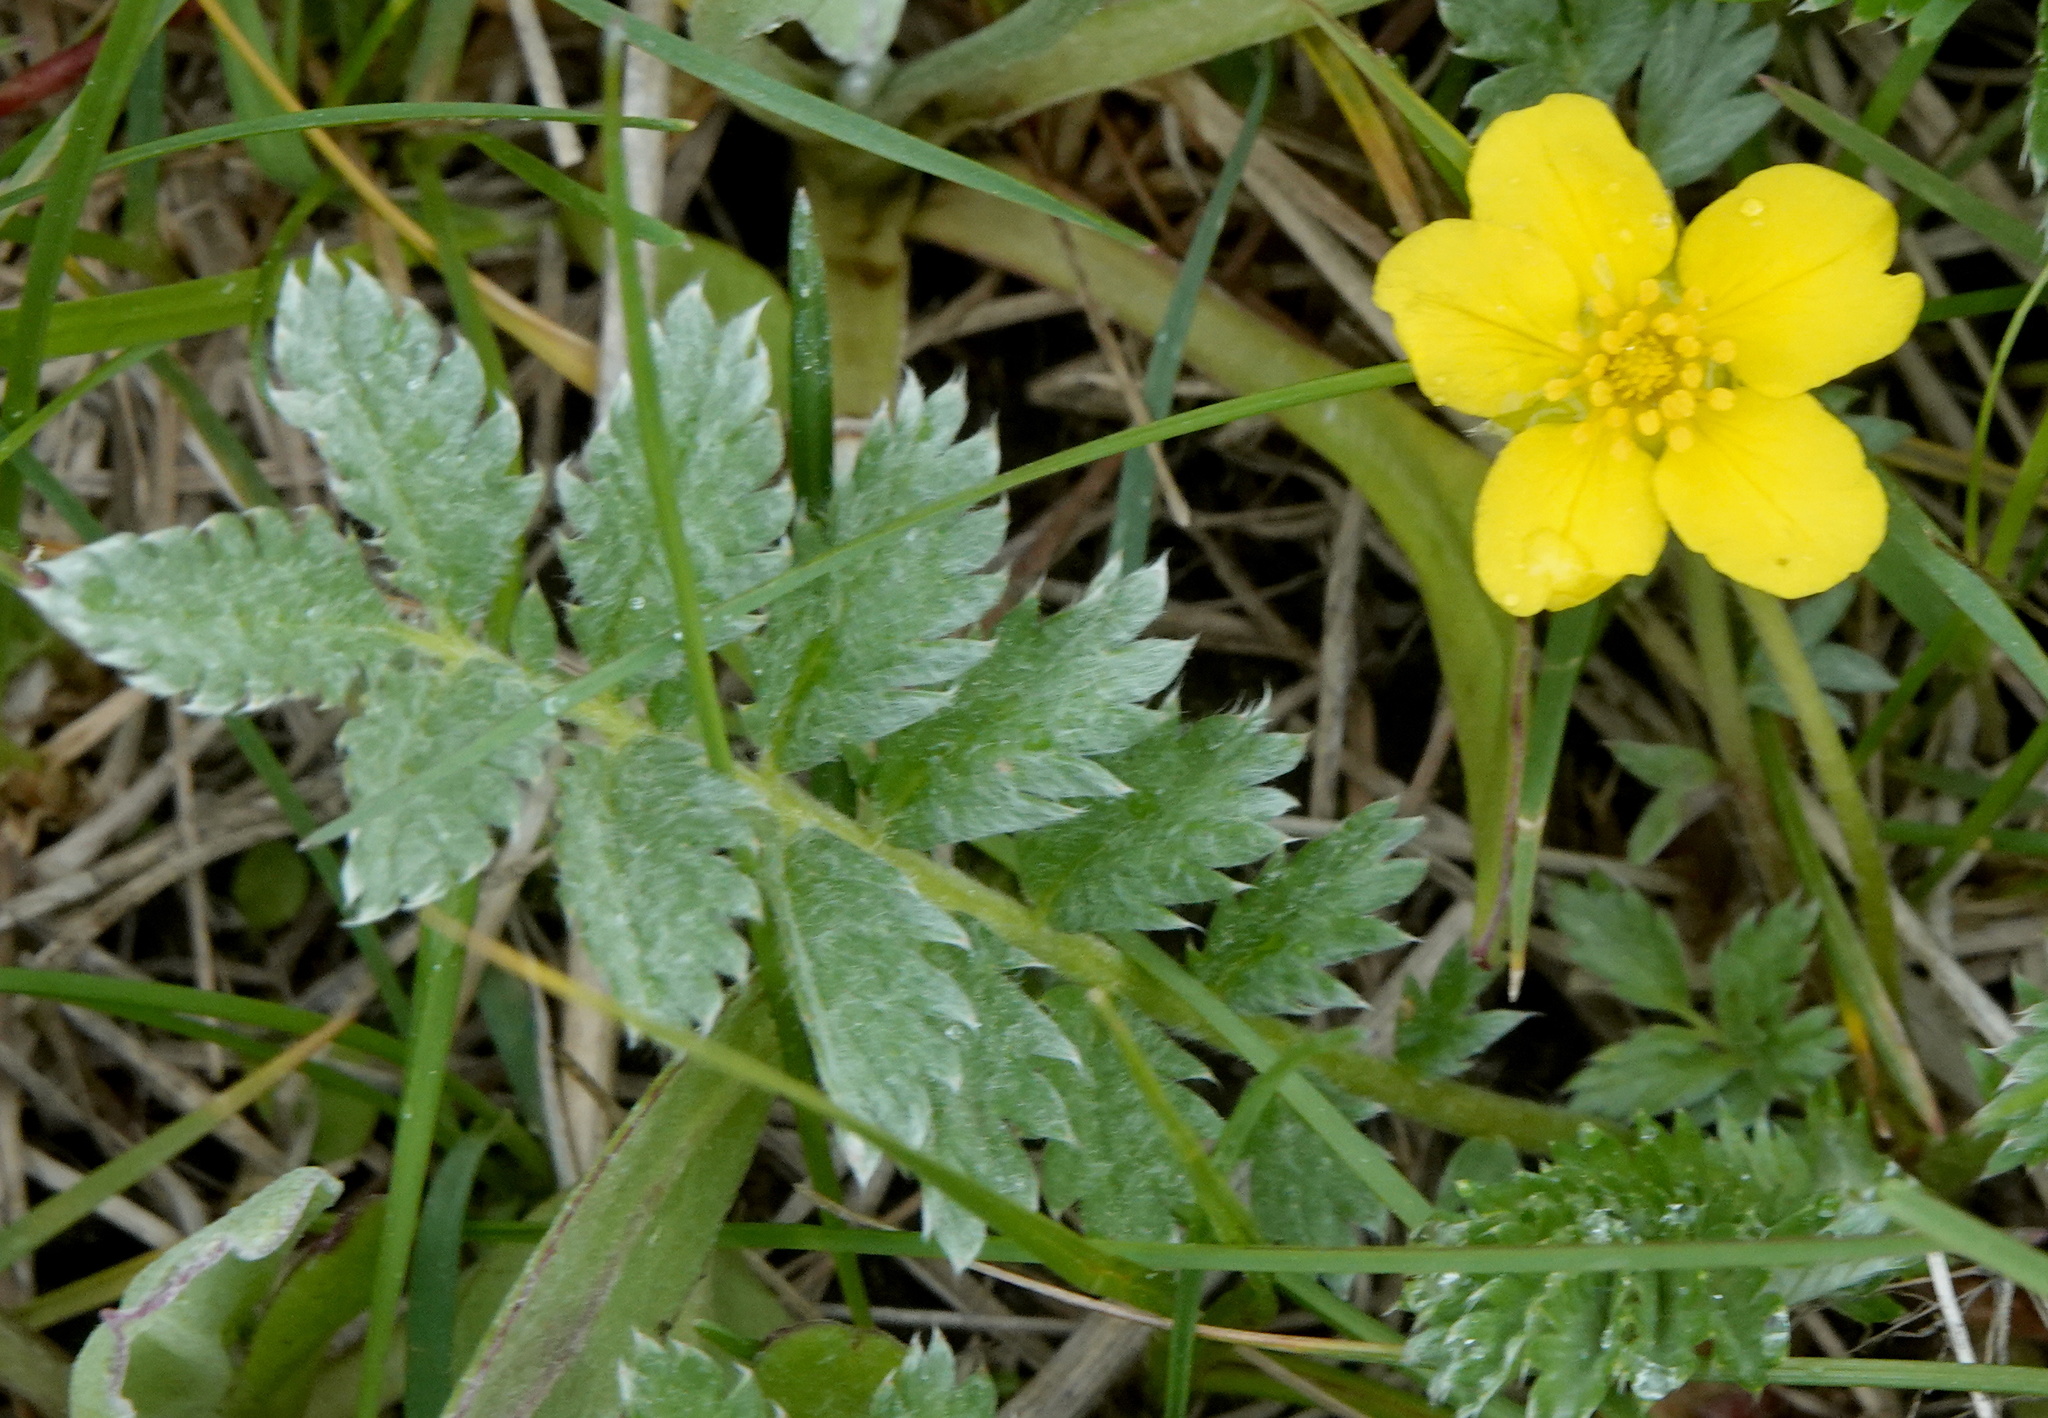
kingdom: Plantae
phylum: Tracheophyta
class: Magnoliopsida
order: Rosales
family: Rosaceae
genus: Argentina
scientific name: Argentina anserina
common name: Common silverweed
